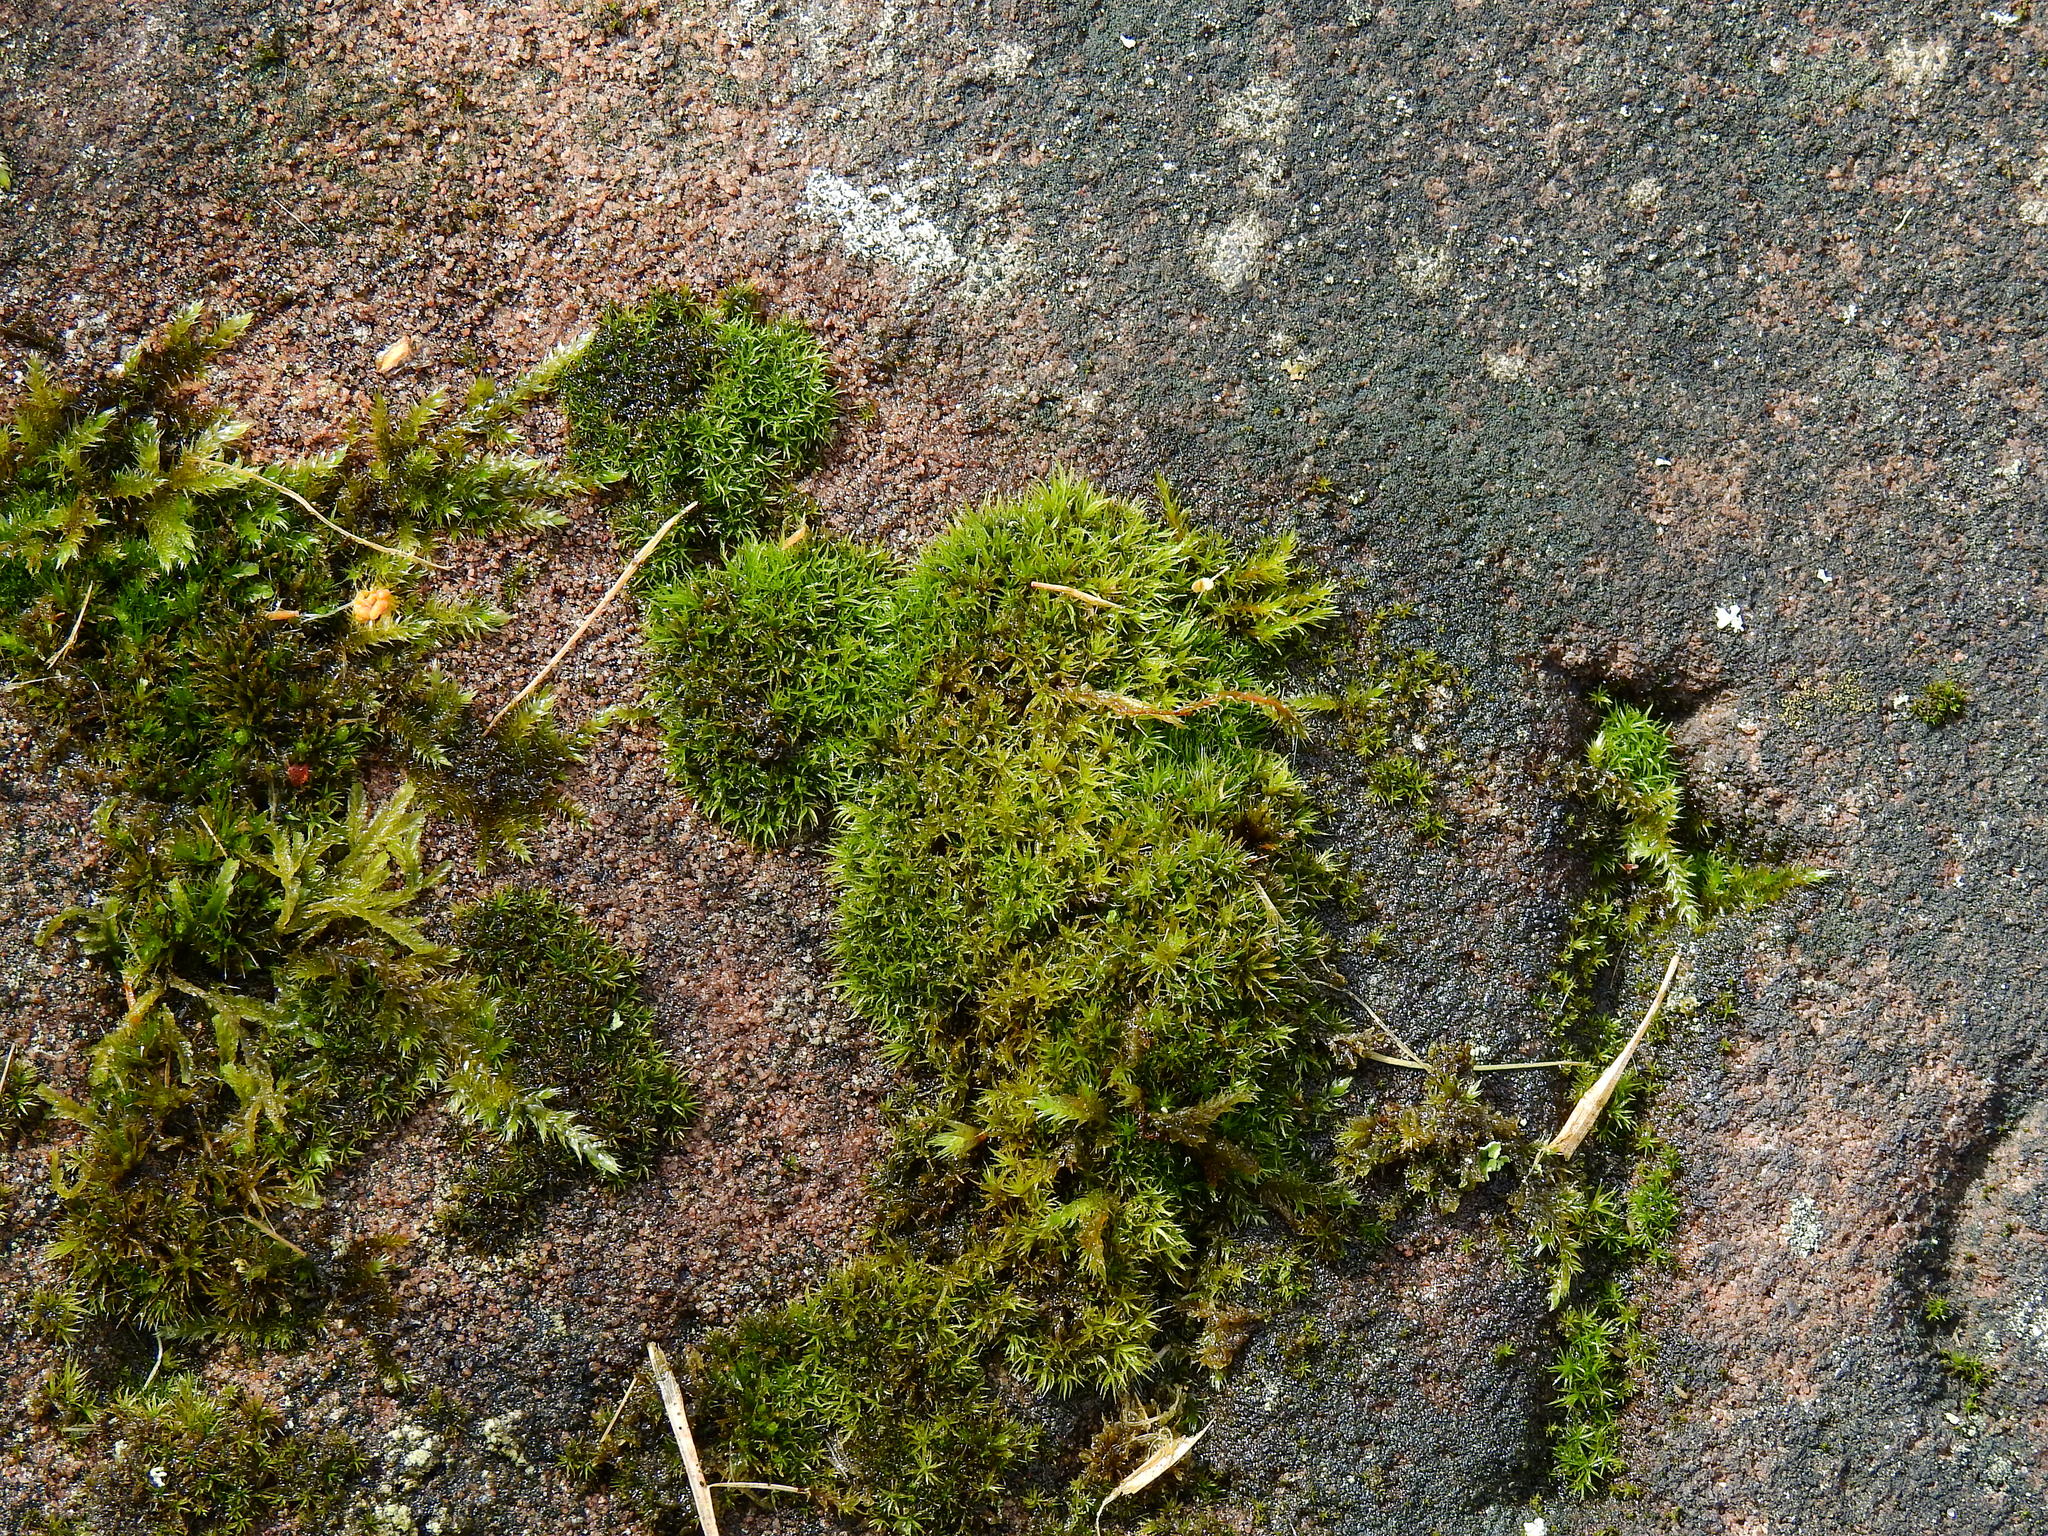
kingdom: Plantae
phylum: Bryophyta
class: Bryopsida
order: Grimmiales
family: Grimmiaceae
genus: Grimmia
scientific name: Grimmia trichophylla
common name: Hair-pointed grimmia
